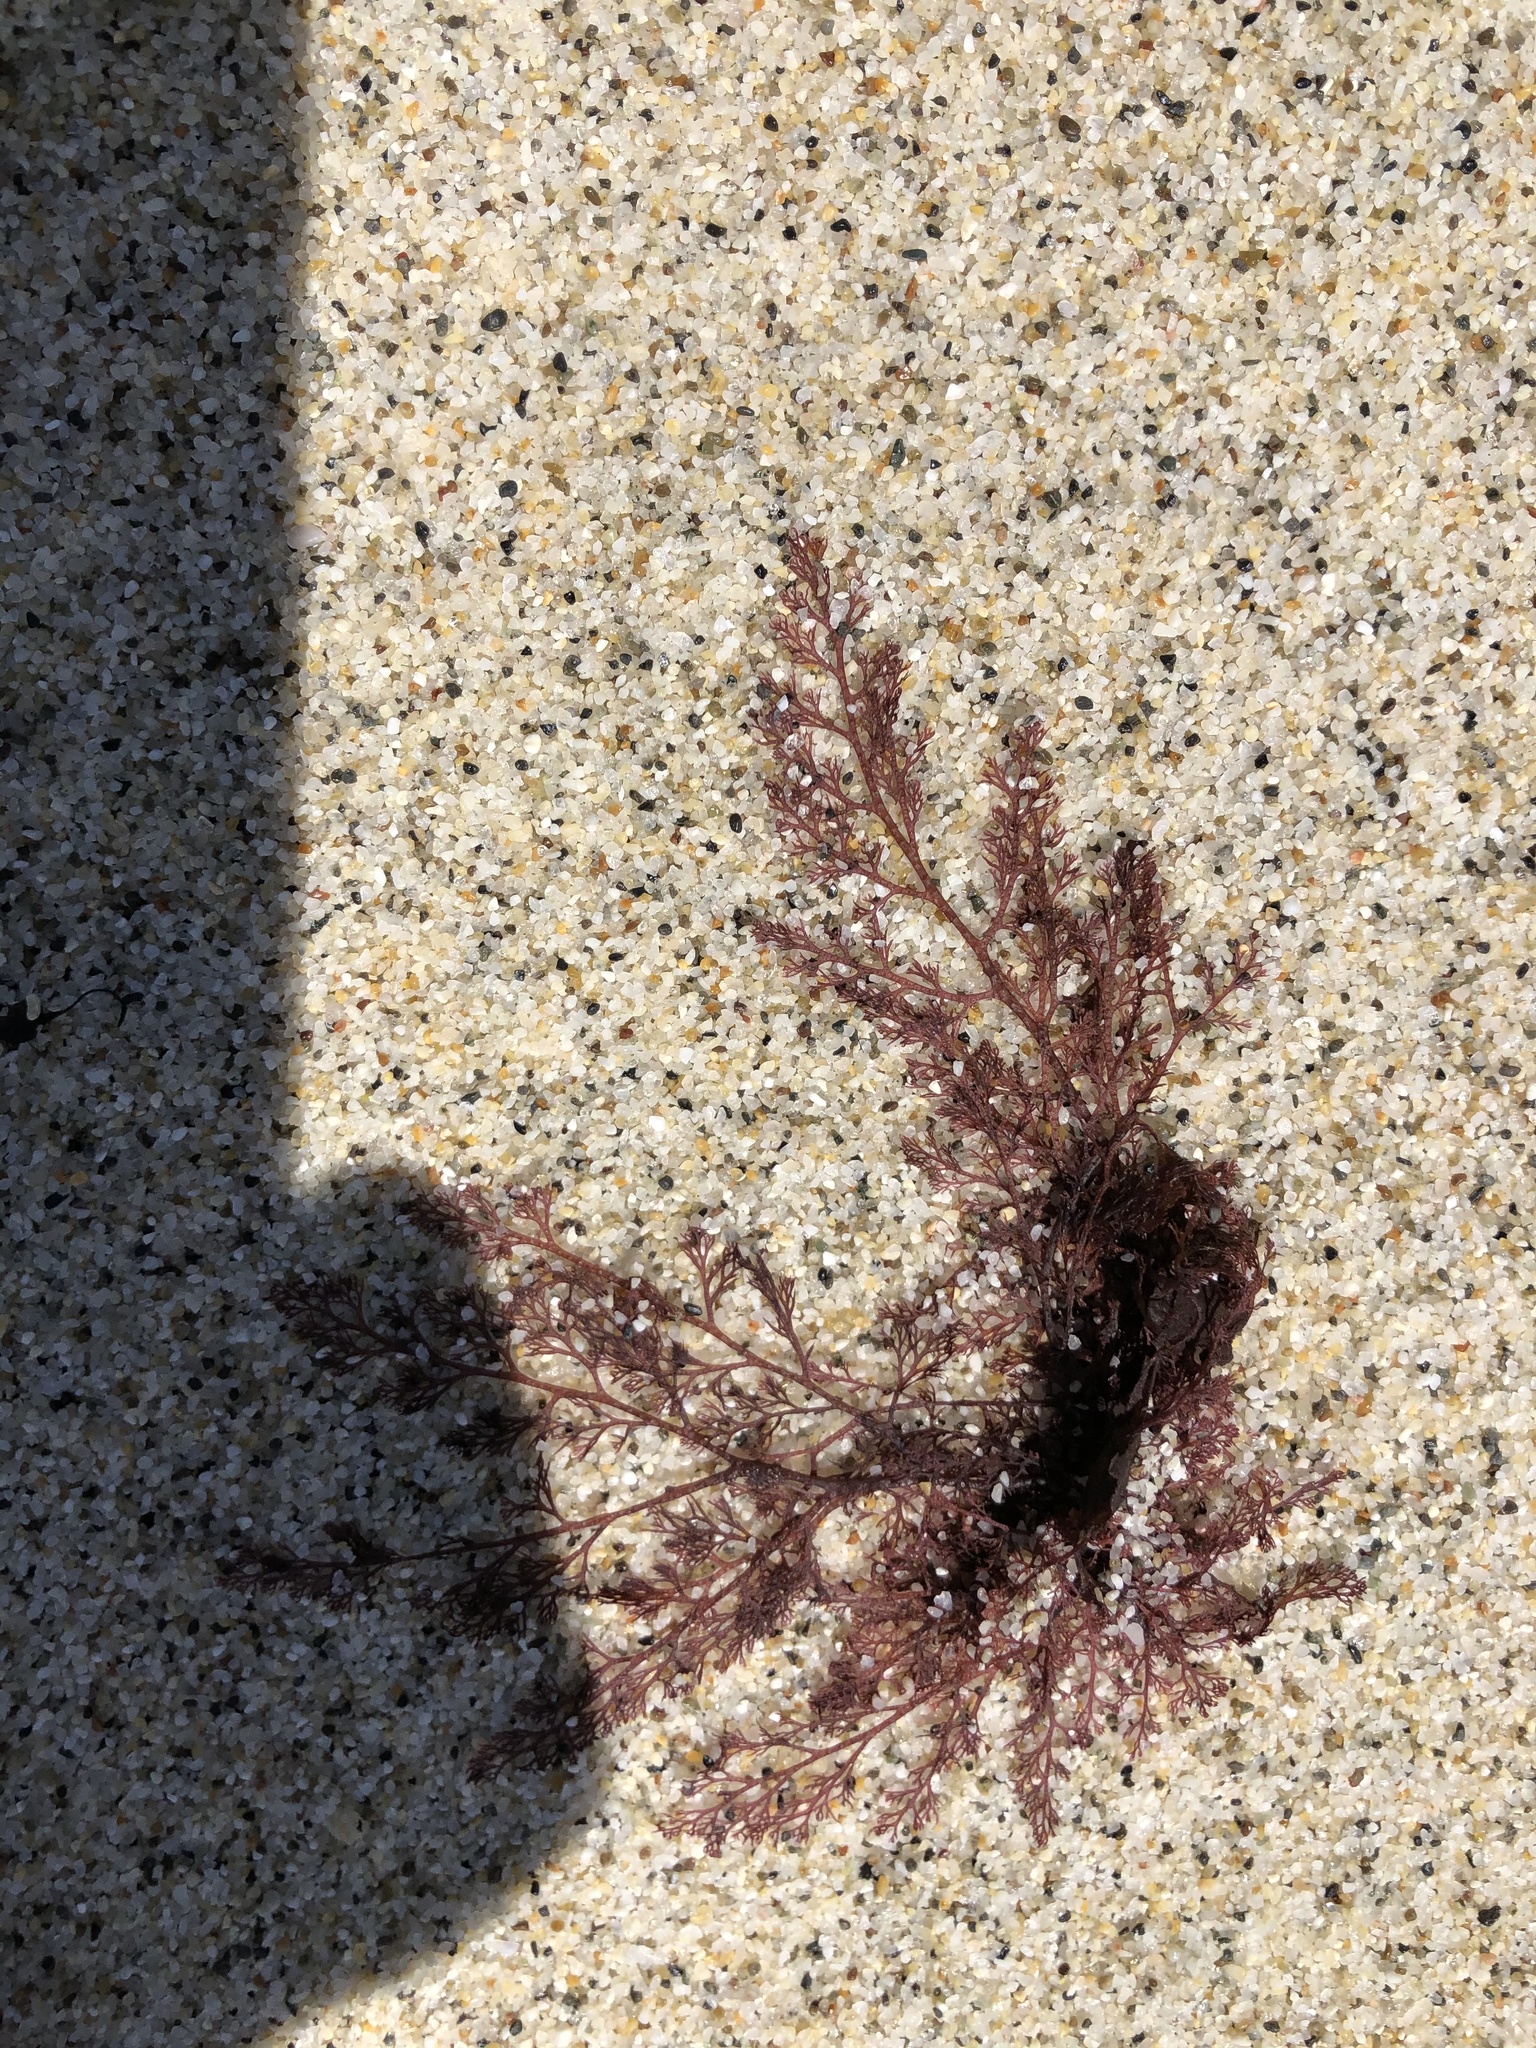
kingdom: Plantae
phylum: Rhodophyta
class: Florideophyceae
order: Ceramiales
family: Ceramiaceae
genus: Microcladia
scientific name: Microcladia coulteri
